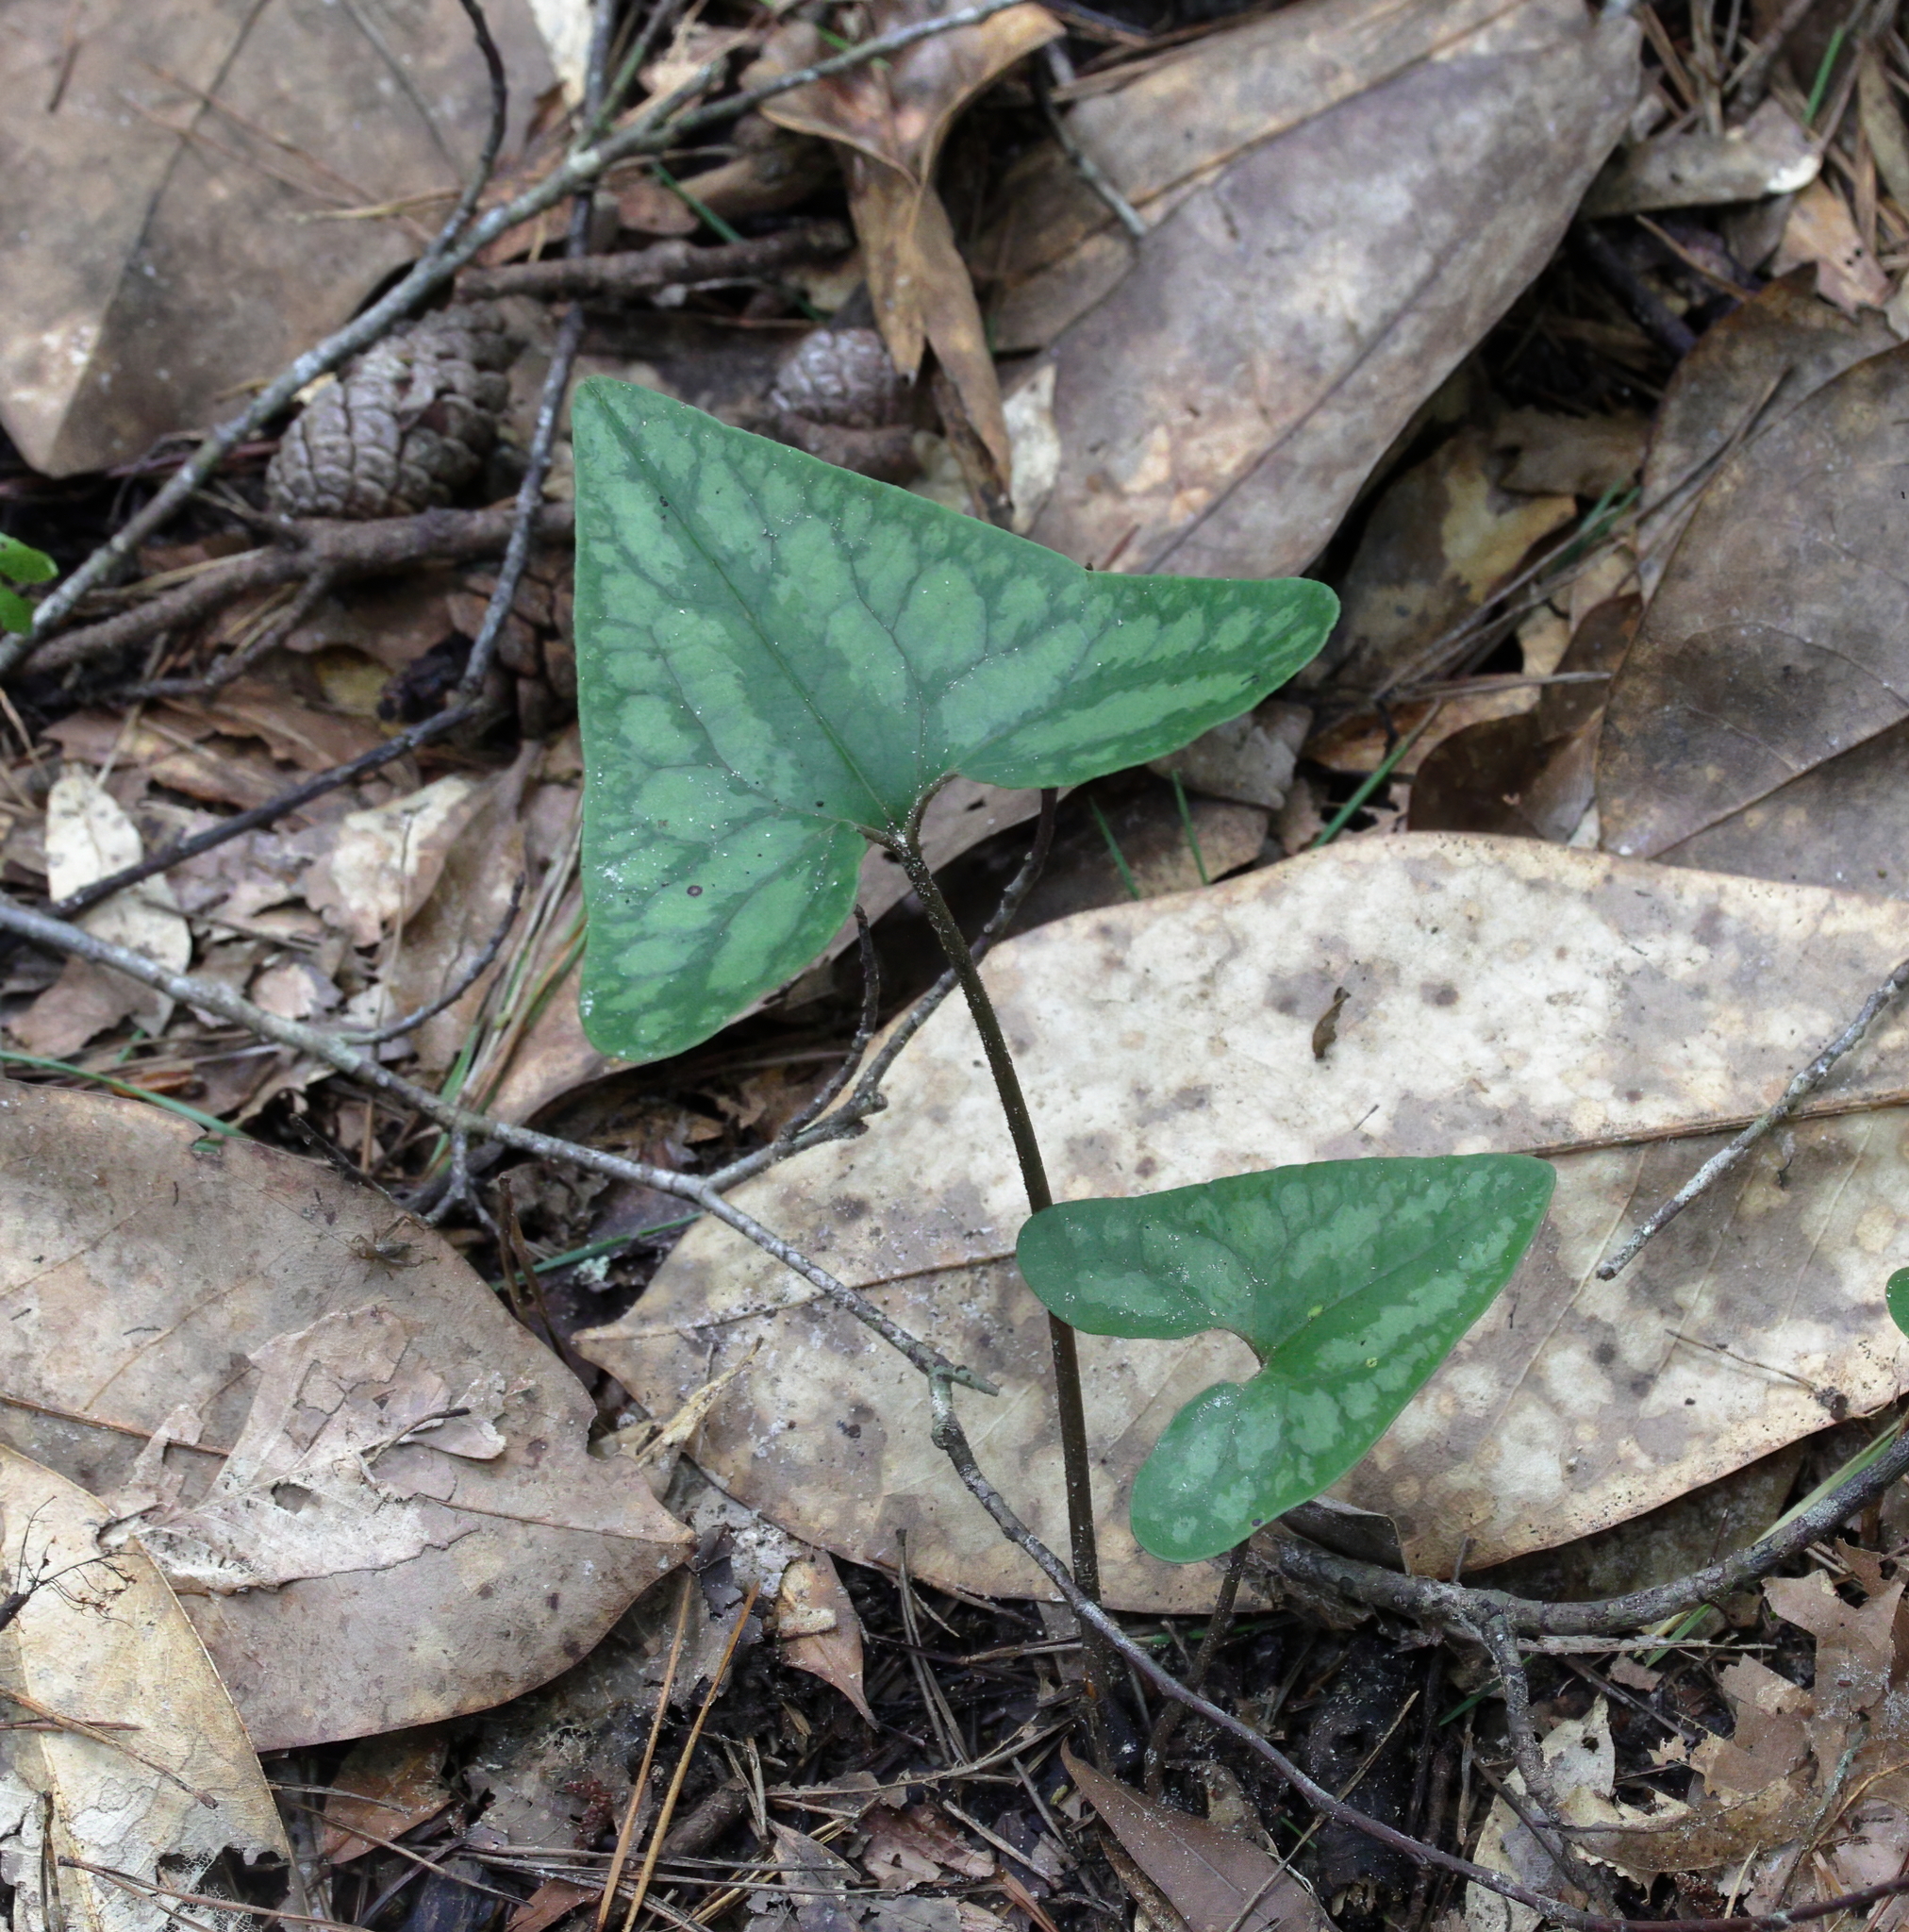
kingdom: Plantae
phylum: Tracheophyta
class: Magnoliopsida
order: Piperales
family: Aristolochiaceae
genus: Hexastylis
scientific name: Hexastylis arifolia
